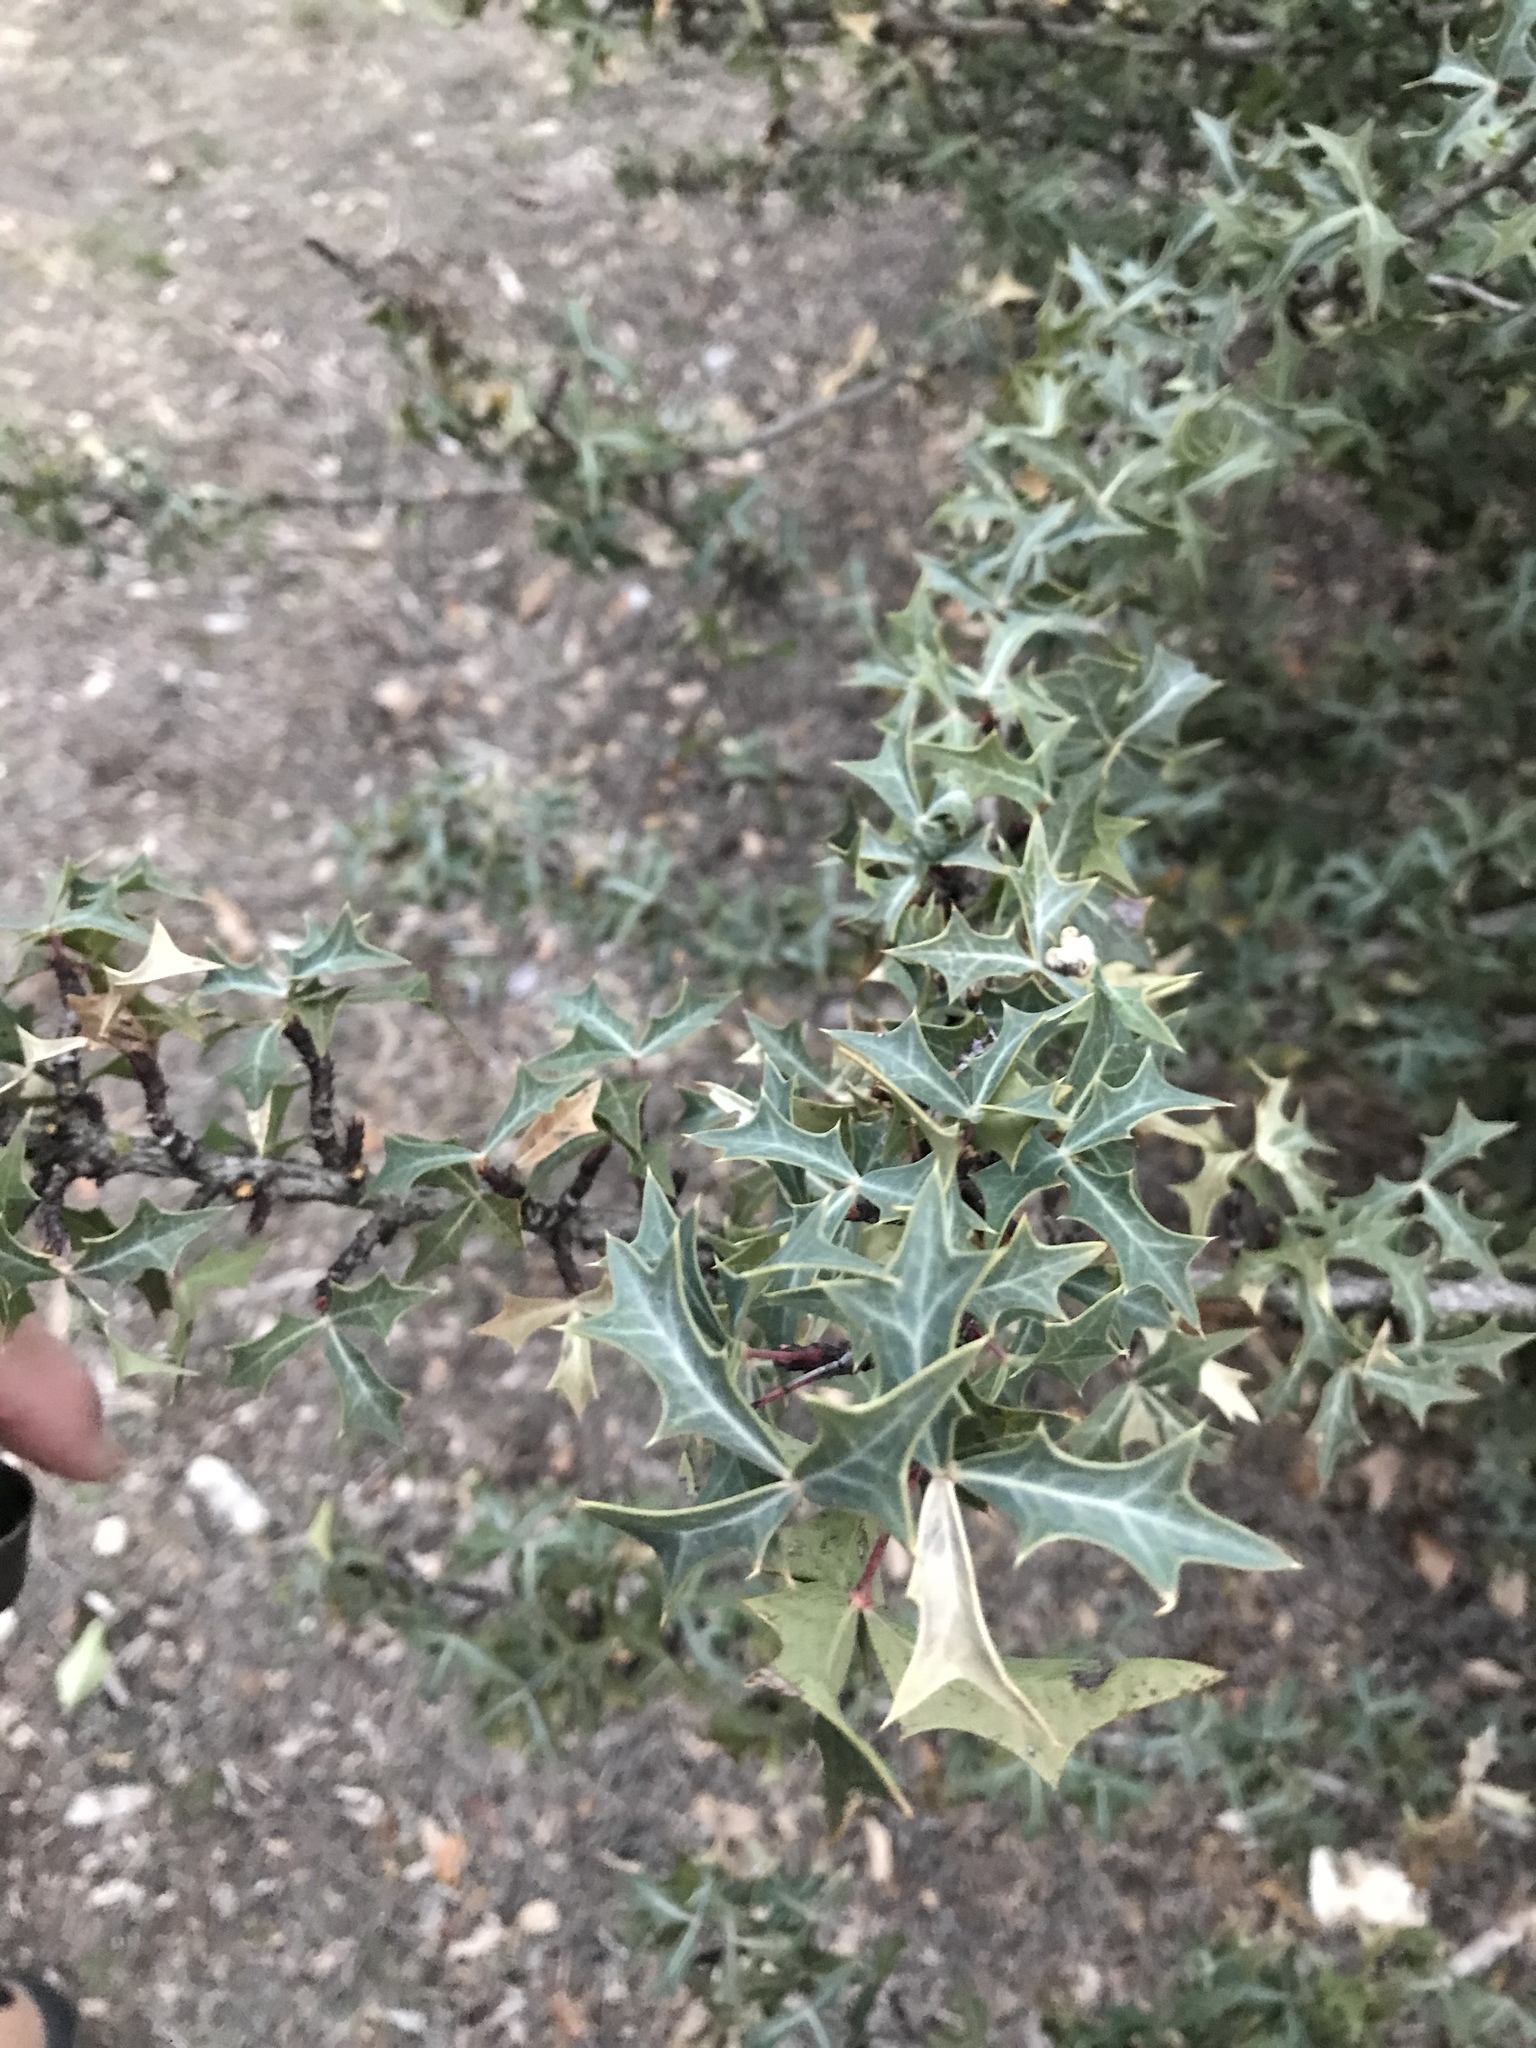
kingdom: Plantae
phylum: Tracheophyta
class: Magnoliopsida
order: Ranunculales
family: Berberidaceae
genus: Alloberberis
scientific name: Alloberberis trifoliolata
